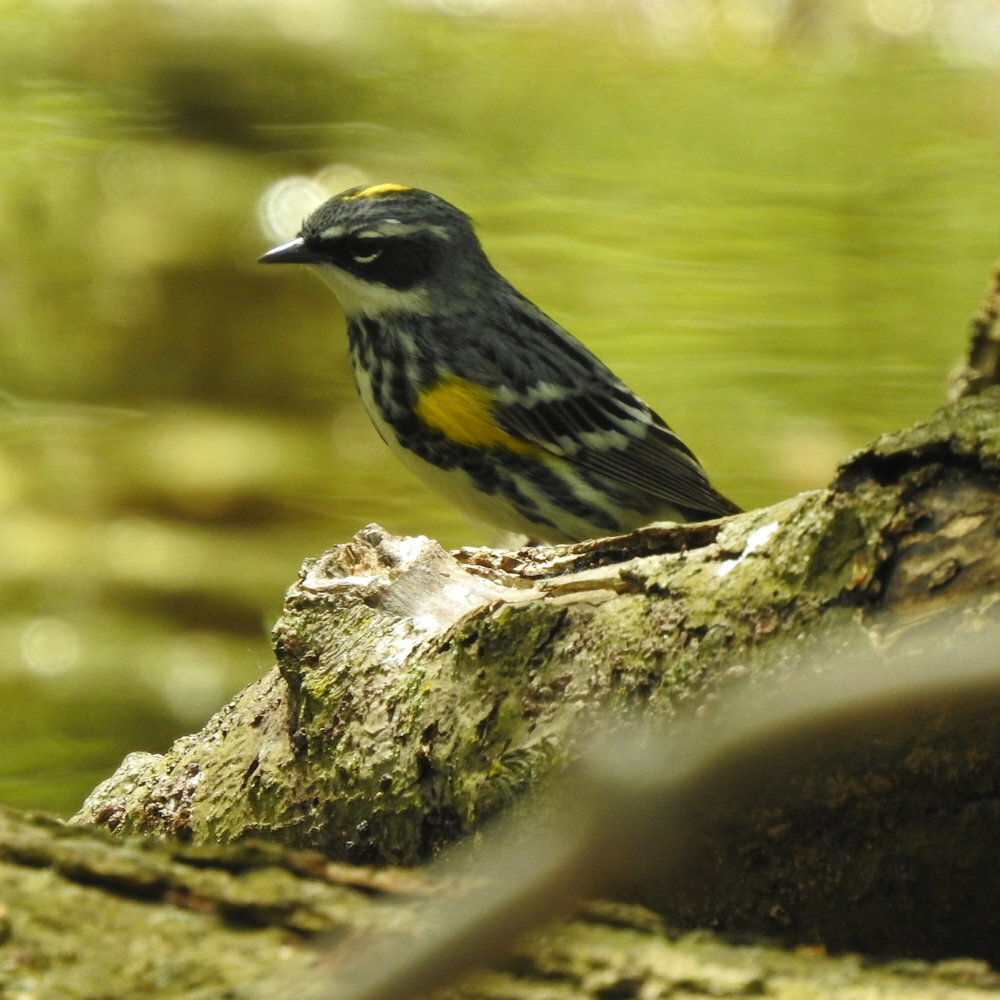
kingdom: Animalia
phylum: Chordata
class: Aves
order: Passeriformes
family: Parulidae
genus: Setophaga
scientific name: Setophaga coronata
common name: Myrtle warbler
